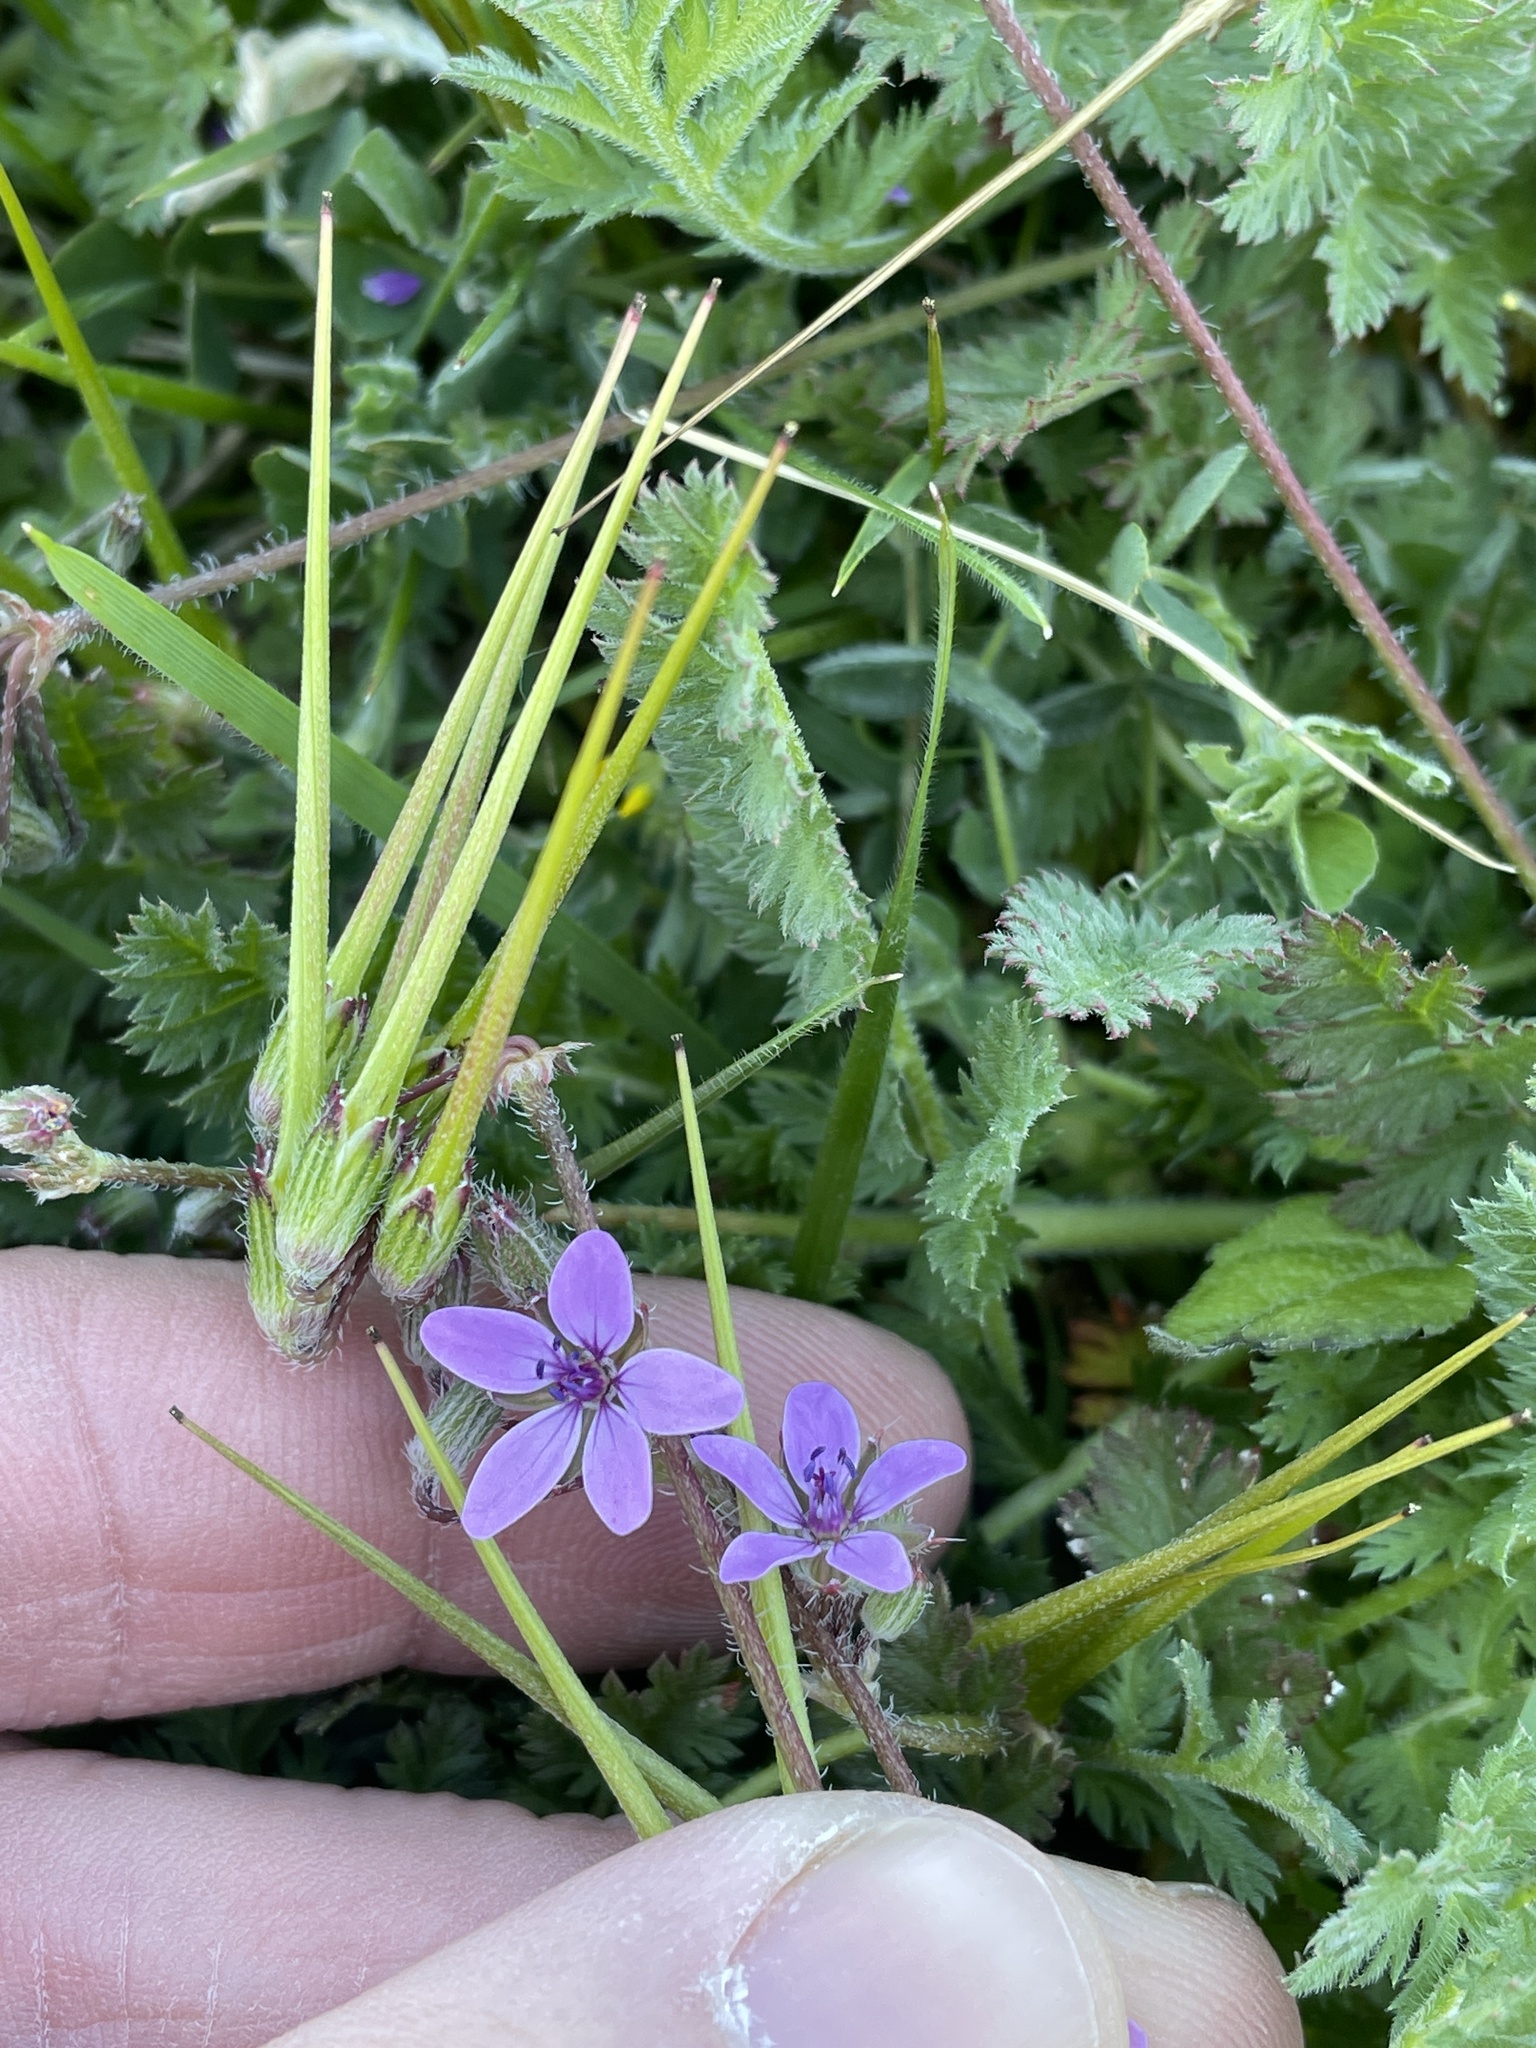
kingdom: Plantae
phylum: Tracheophyta
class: Magnoliopsida
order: Geraniales
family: Geraniaceae
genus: Erodium
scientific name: Erodium cicutarium
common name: Common stork's-bill
